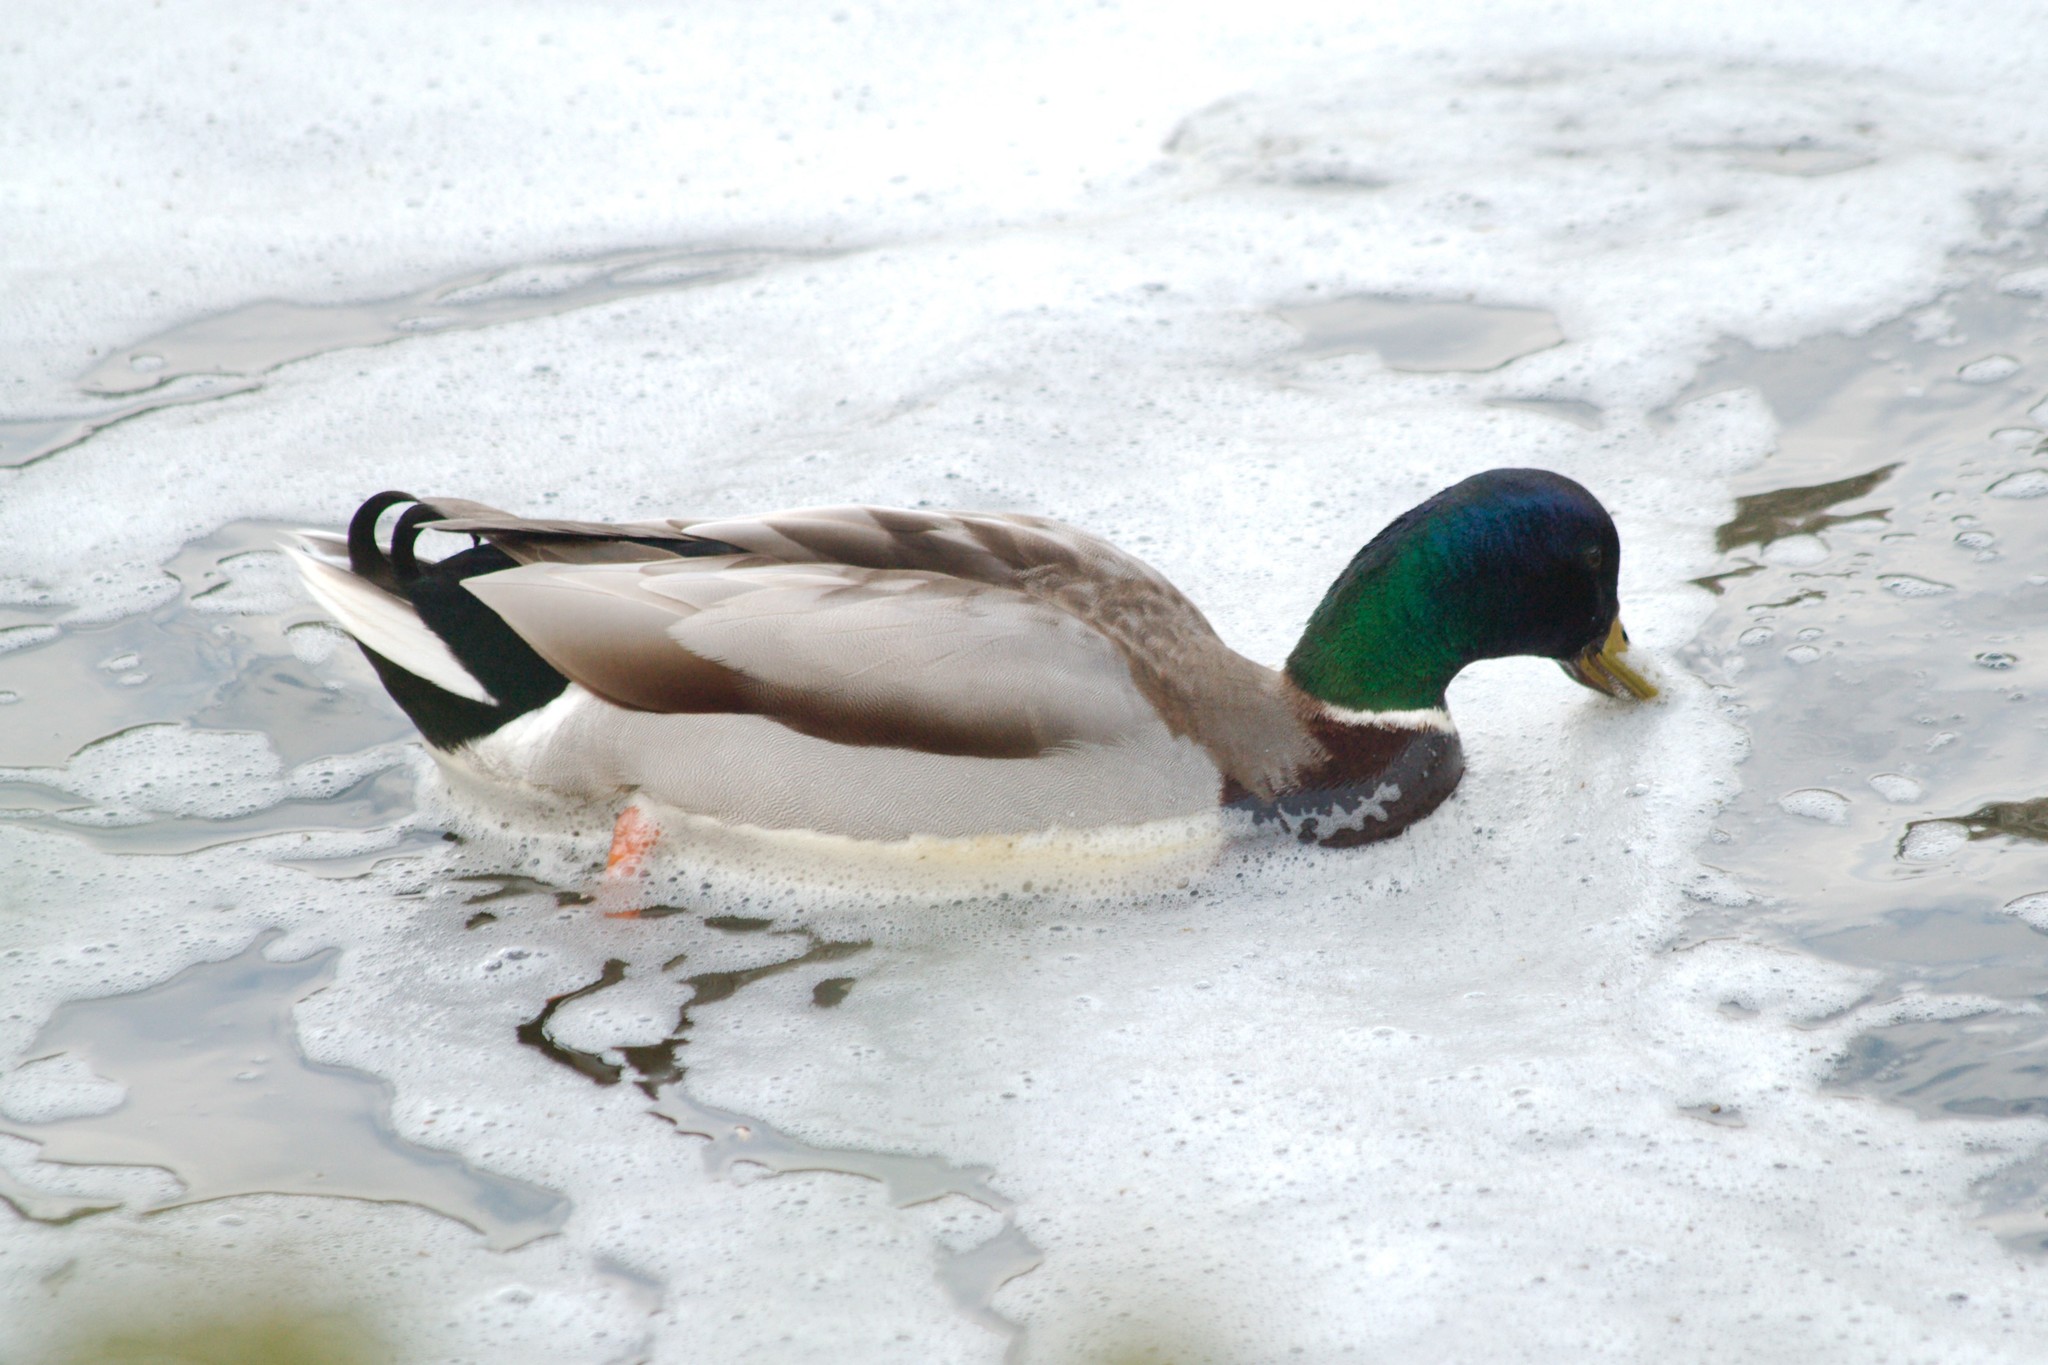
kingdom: Animalia
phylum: Chordata
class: Aves
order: Anseriformes
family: Anatidae
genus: Anas
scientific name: Anas platyrhynchos
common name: Mallard
